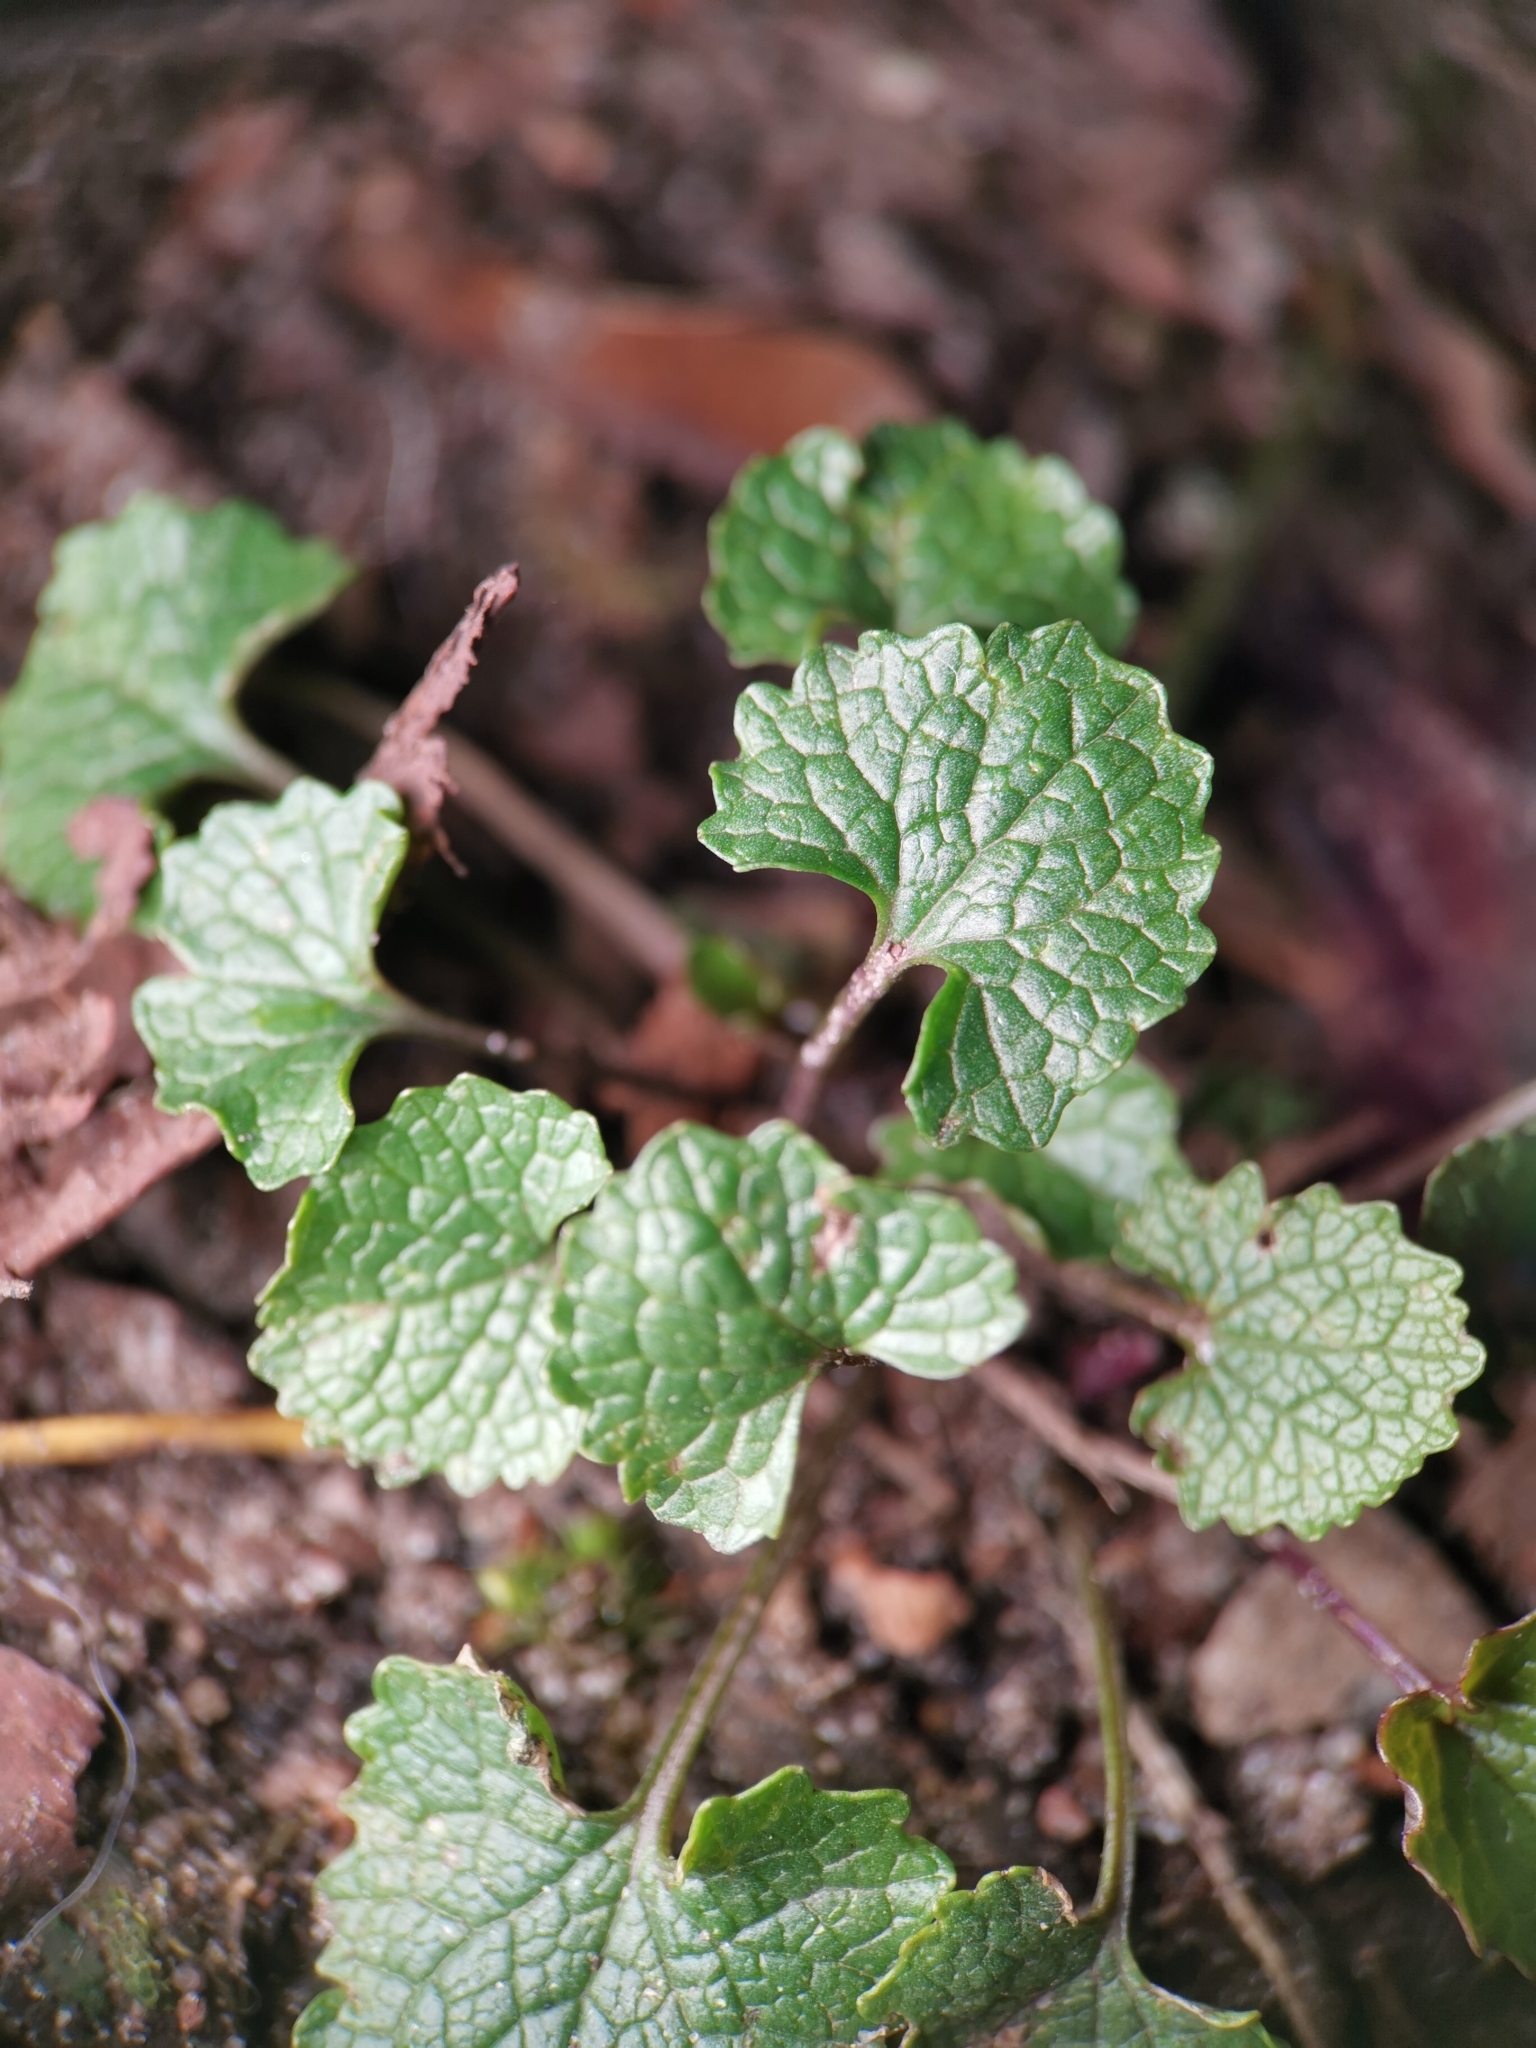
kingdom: Plantae
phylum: Tracheophyta
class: Magnoliopsida
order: Brassicales
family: Brassicaceae
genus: Alliaria
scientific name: Alliaria petiolata
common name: Garlic mustard
